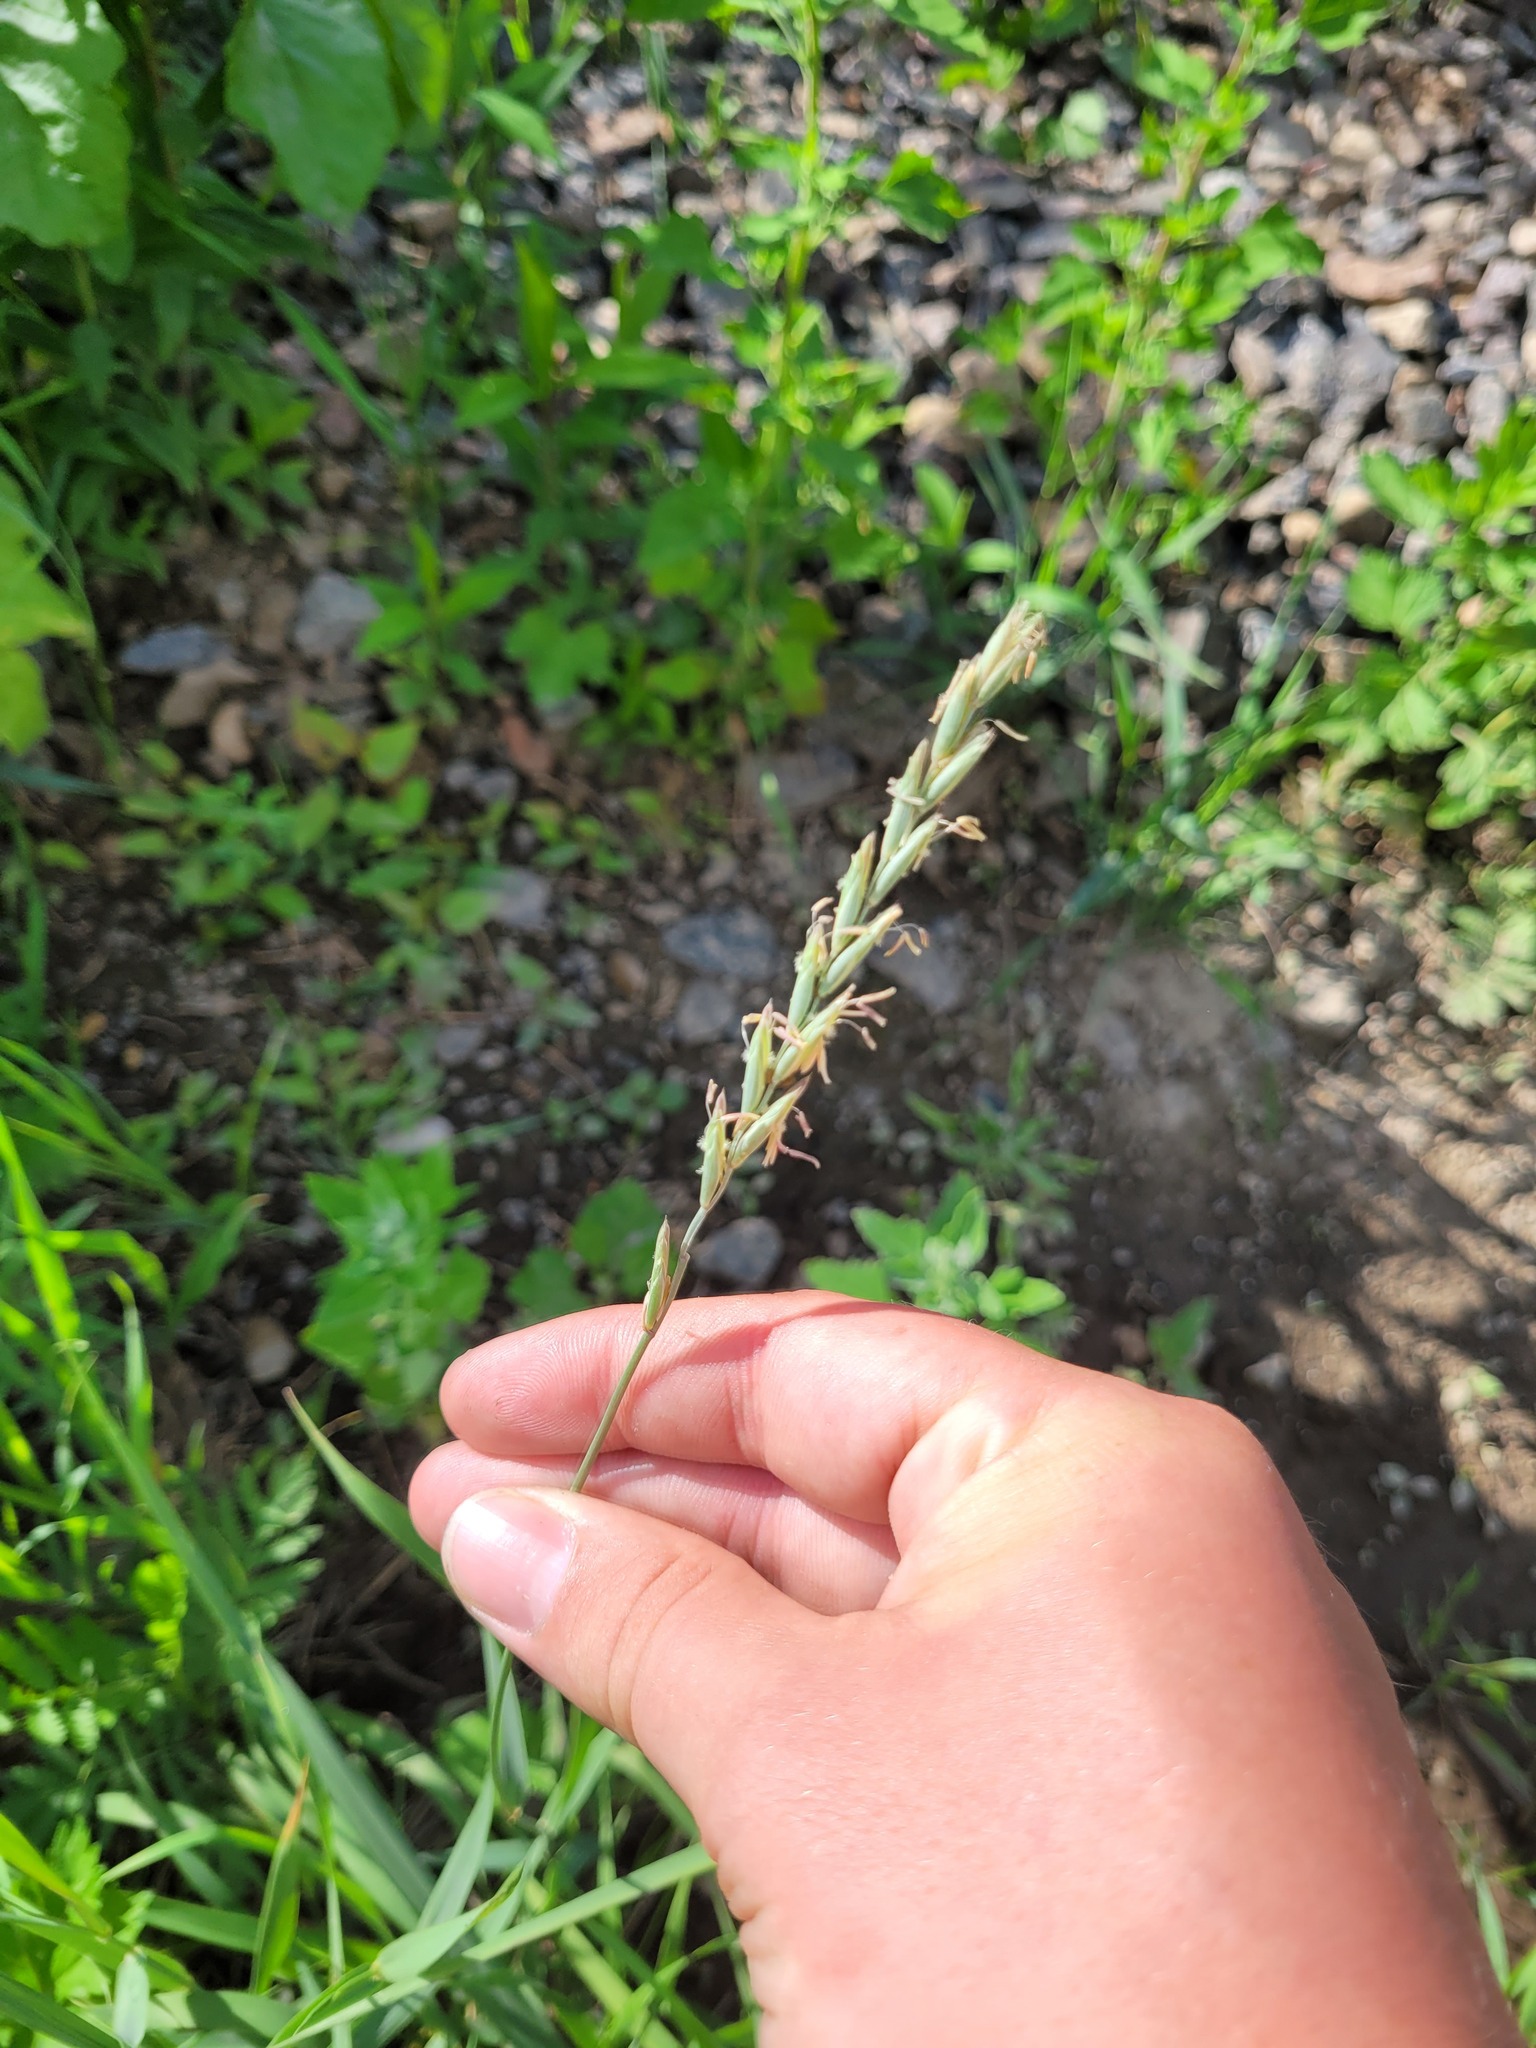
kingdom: Plantae
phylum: Tracheophyta
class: Liliopsida
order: Poales
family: Poaceae
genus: Elymus
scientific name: Elymus repens
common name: Quackgrass
